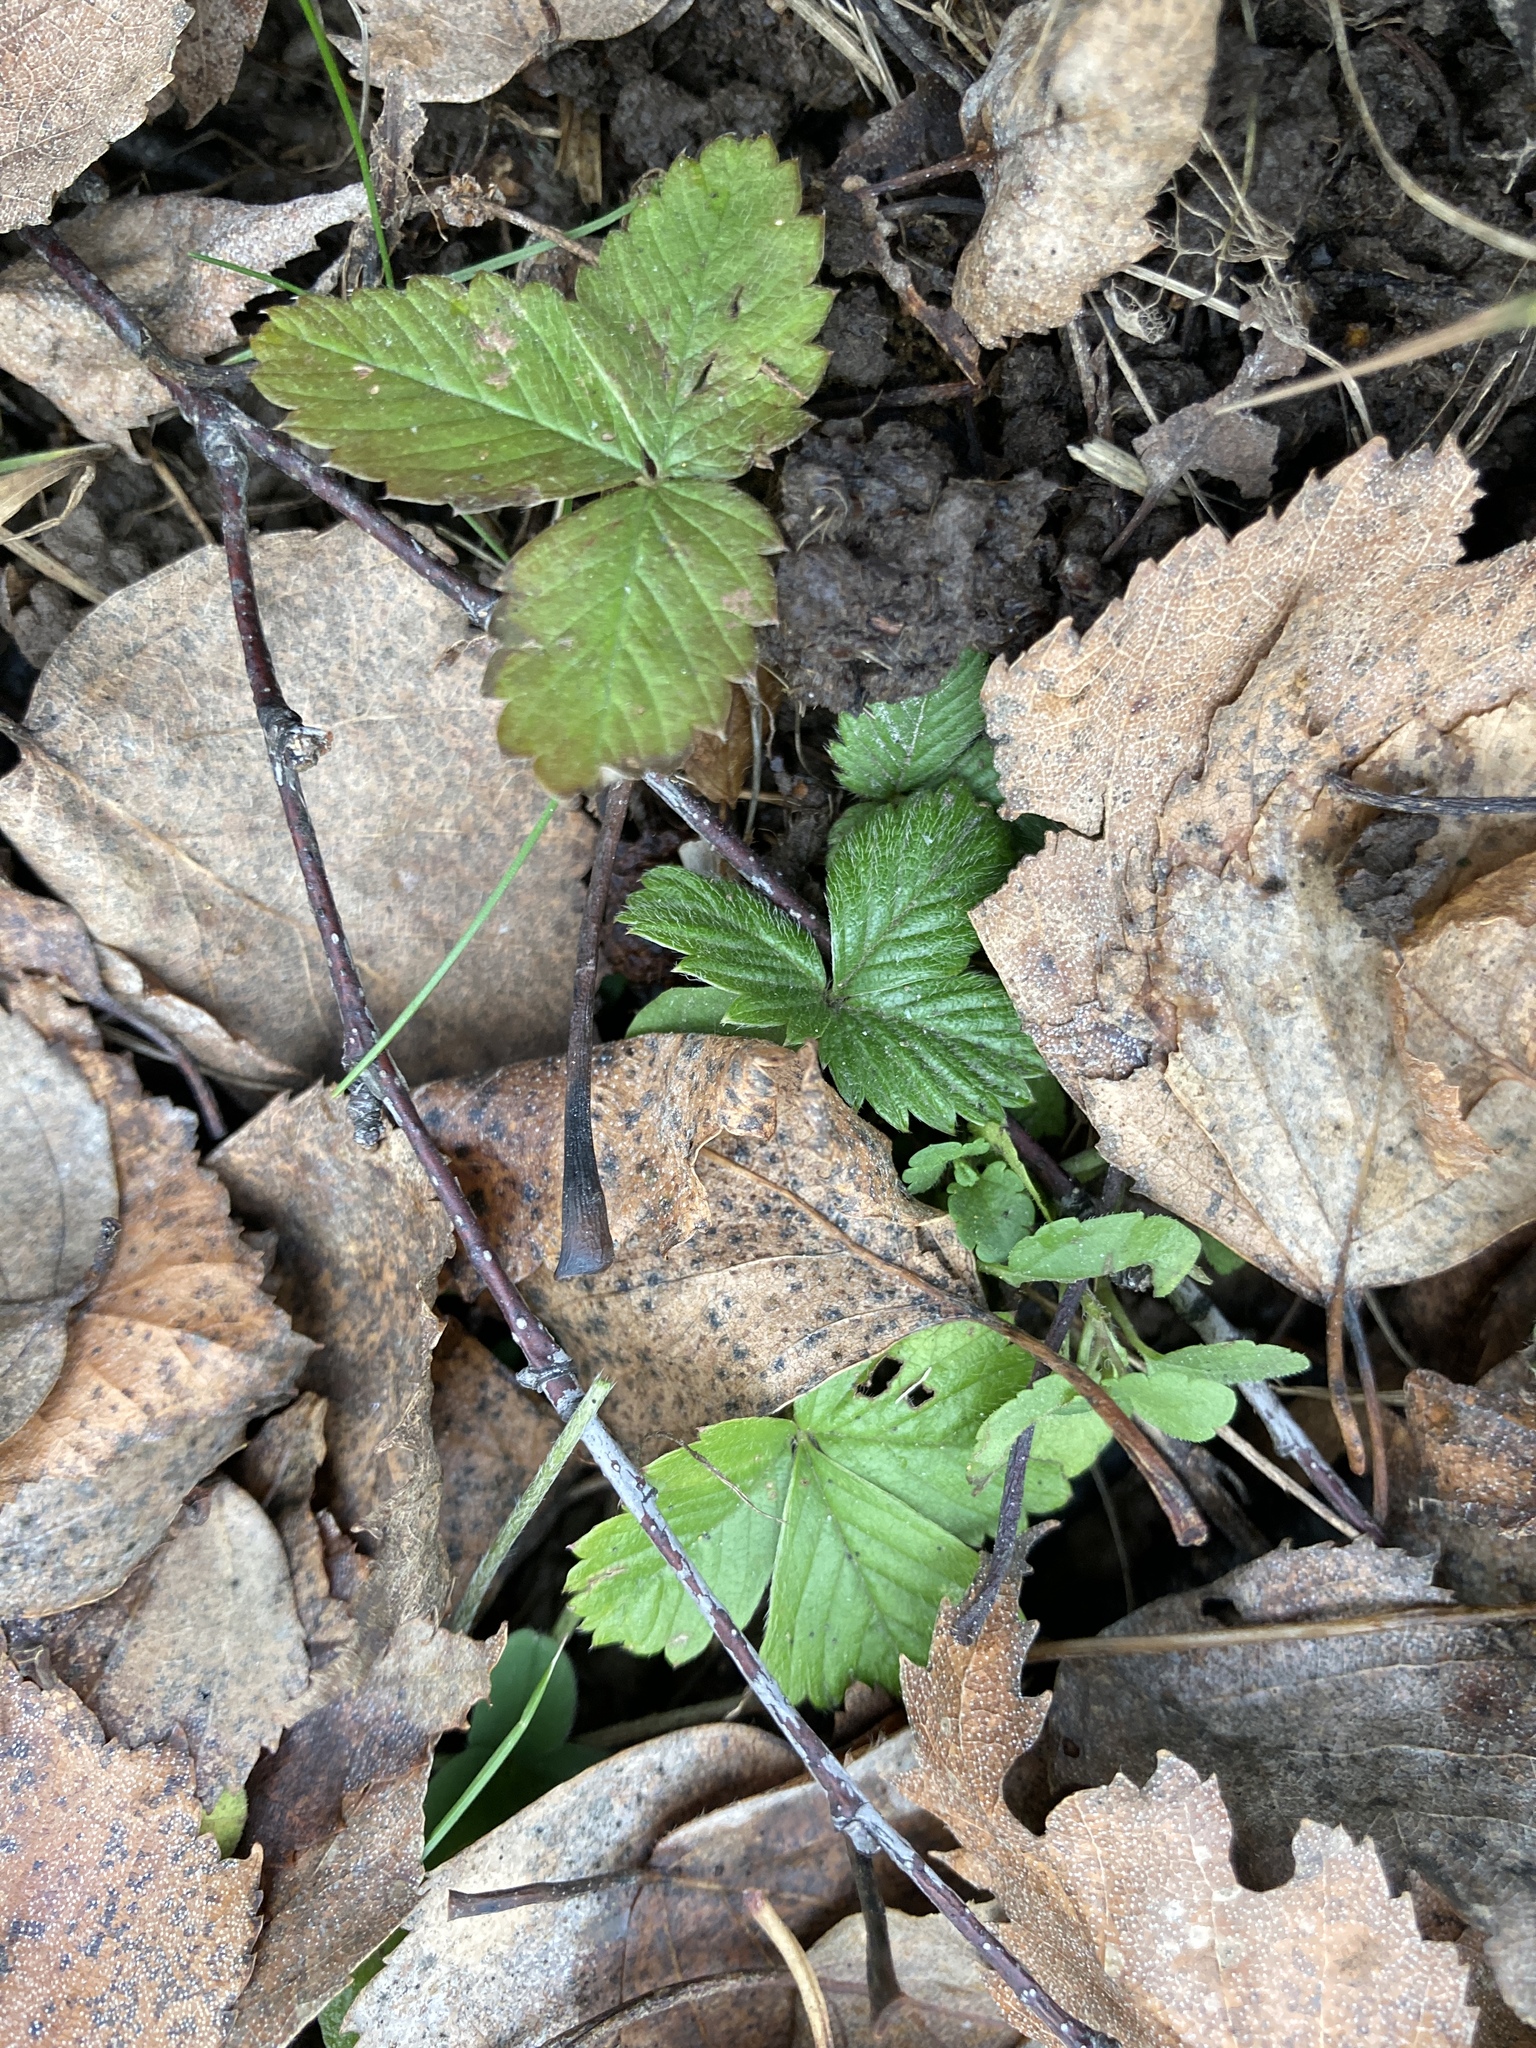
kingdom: Plantae
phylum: Tracheophyta
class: Magnoliopsida
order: Rosales
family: Rosaceae
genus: Fragaria
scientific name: Fragaria vesca
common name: Wild strawberry
